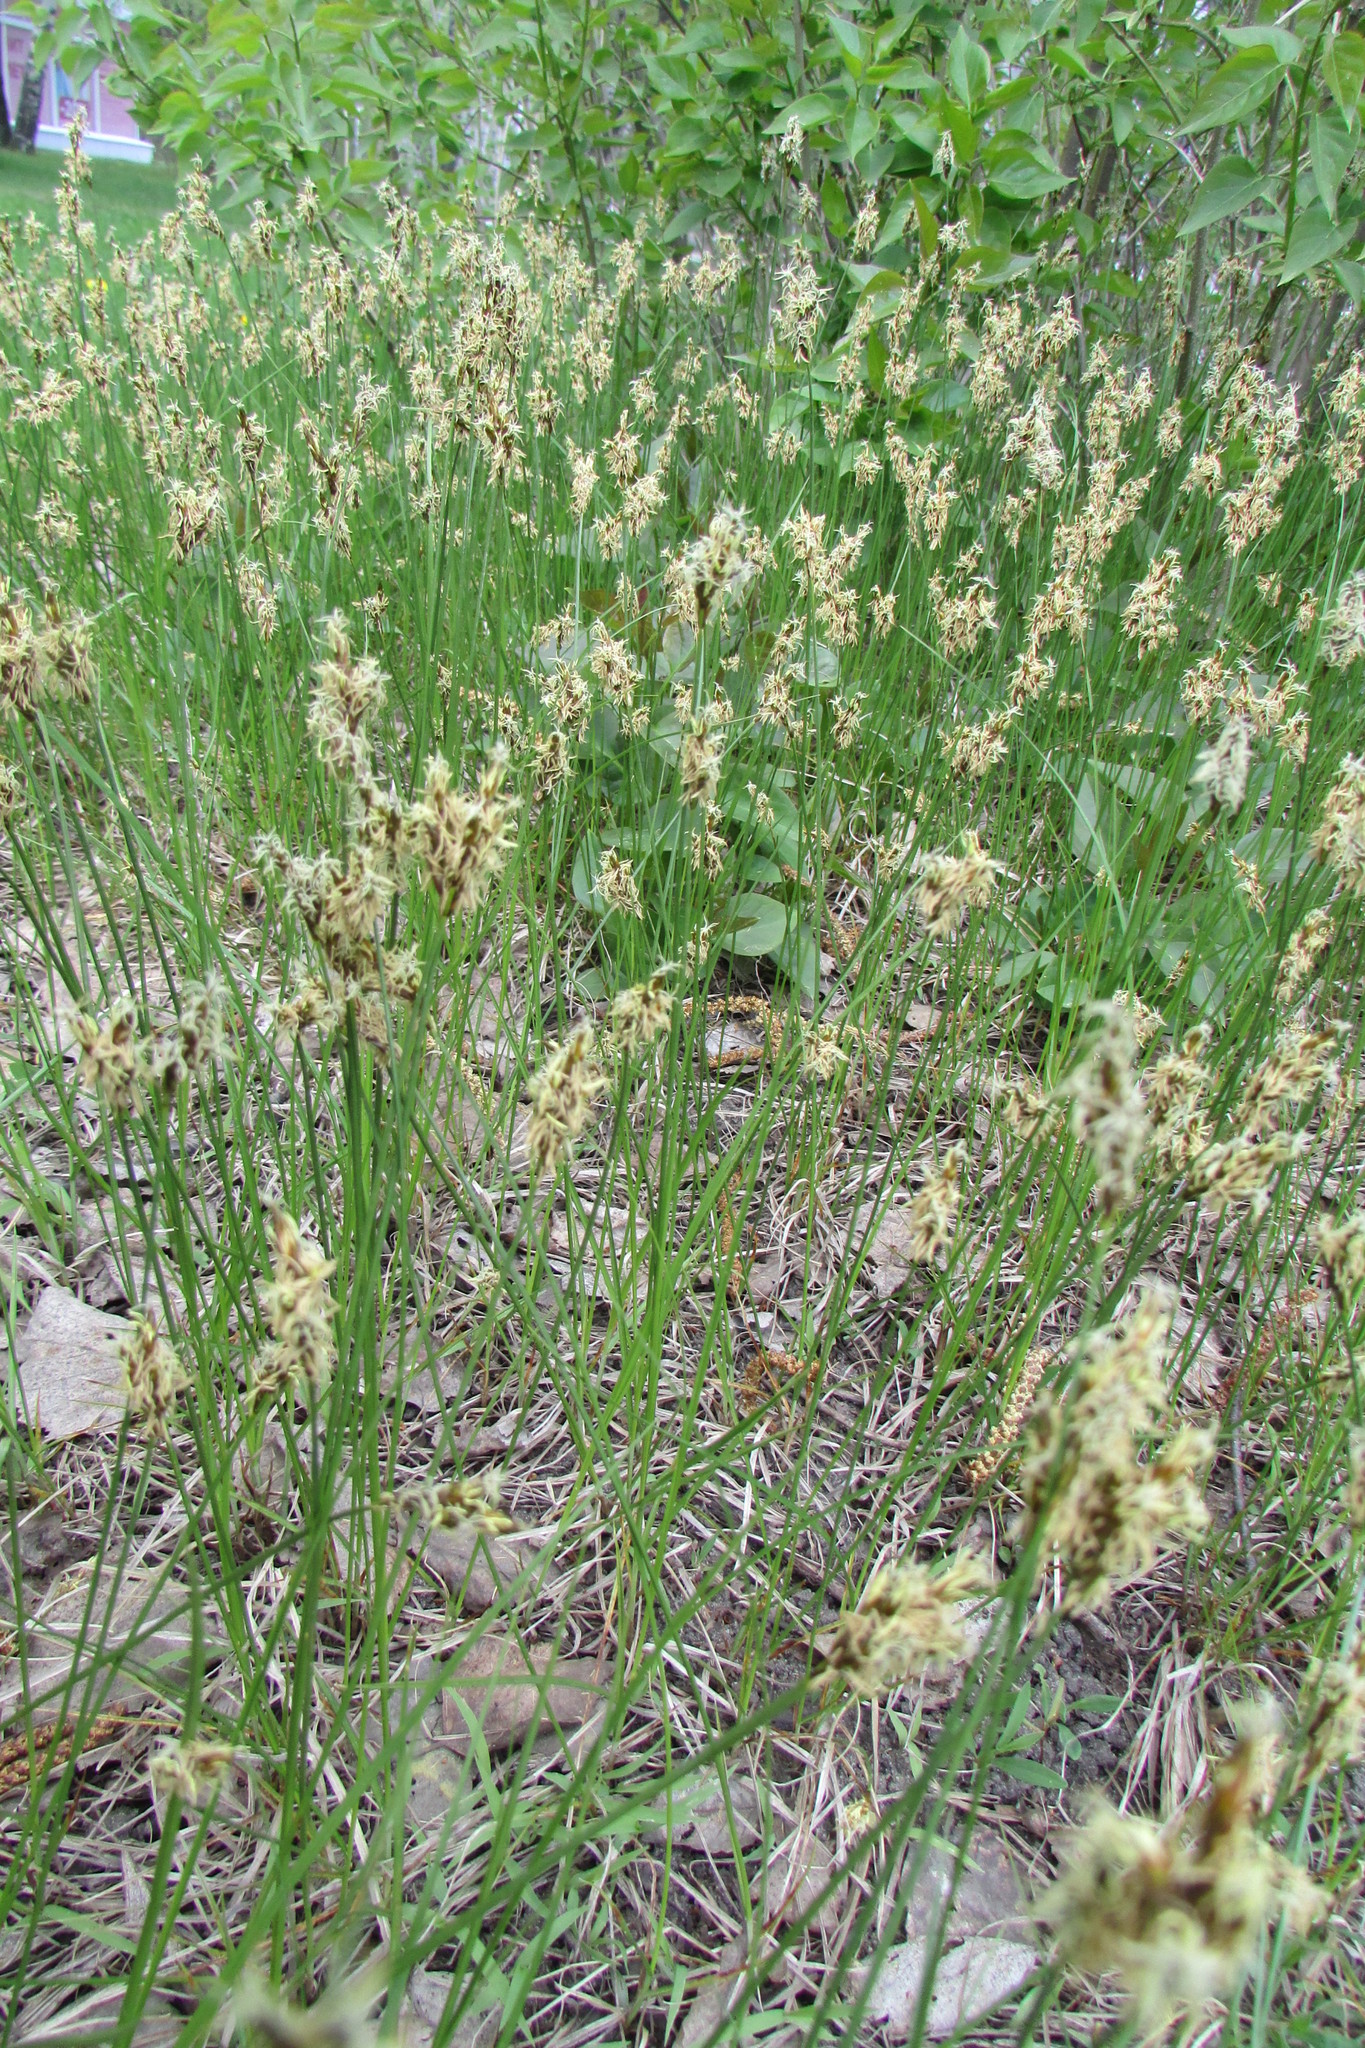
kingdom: Plantae
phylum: Tracheophyta
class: Liliopsida
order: Poales
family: Cyperaceae
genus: Carex
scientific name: Carex praecox
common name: Early sedge
